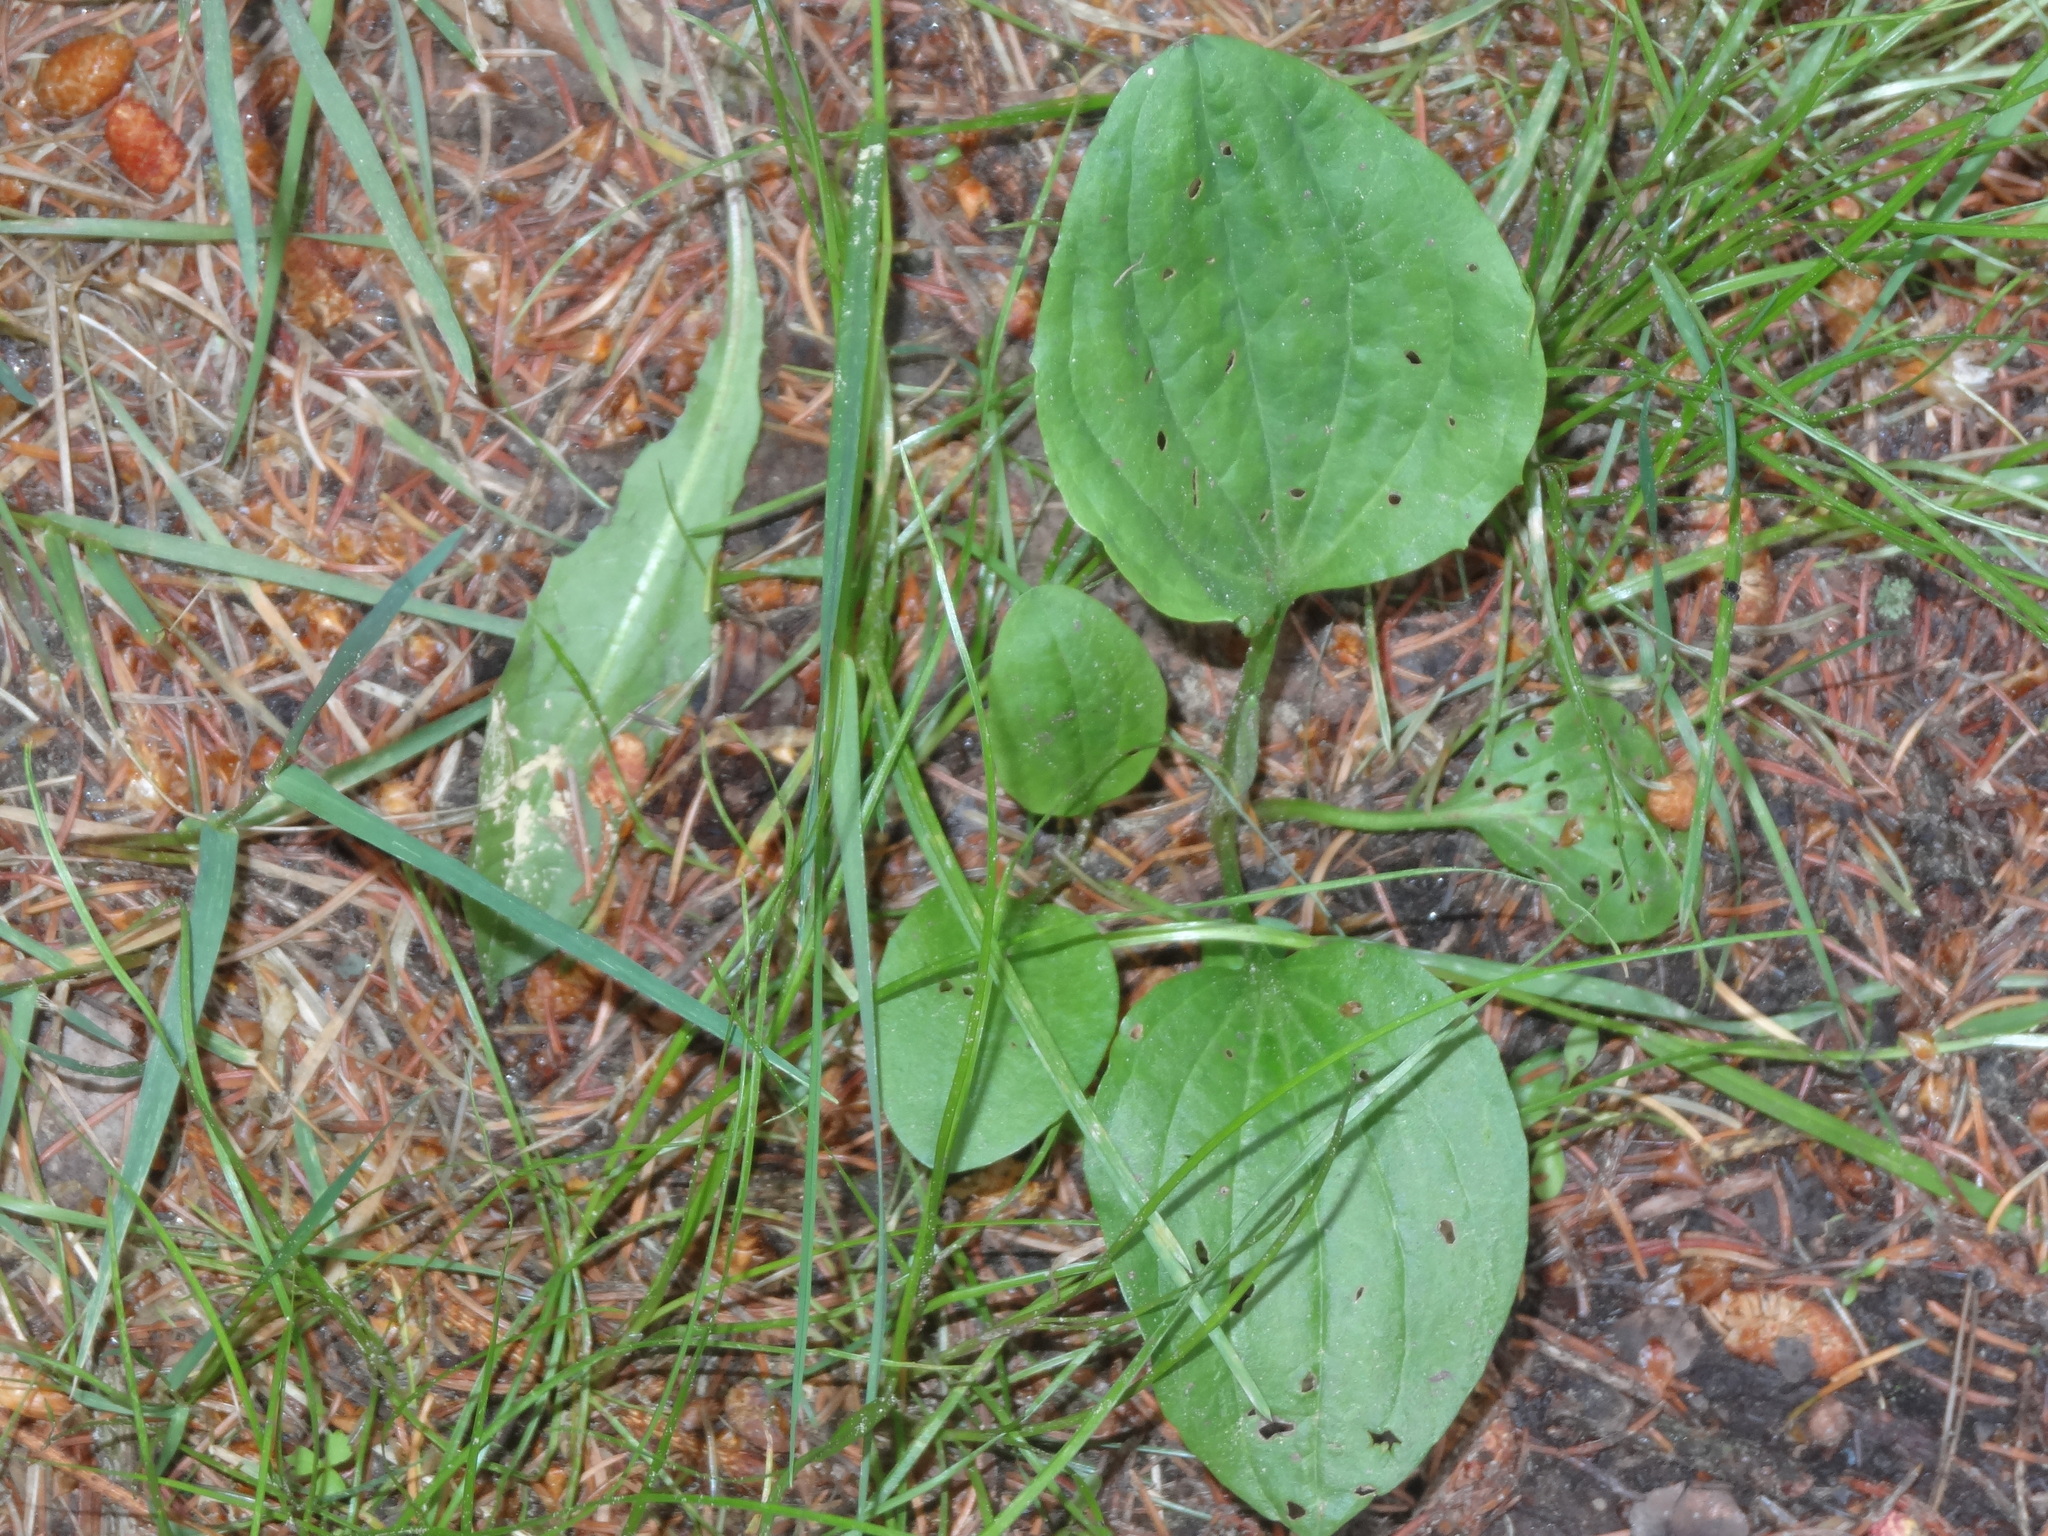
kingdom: Plantae
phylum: Tracheophyta
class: Magnoliopsida
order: Lamiales
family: Plantaginaceae
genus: Plantago
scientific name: Plantago major
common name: Common plantain
